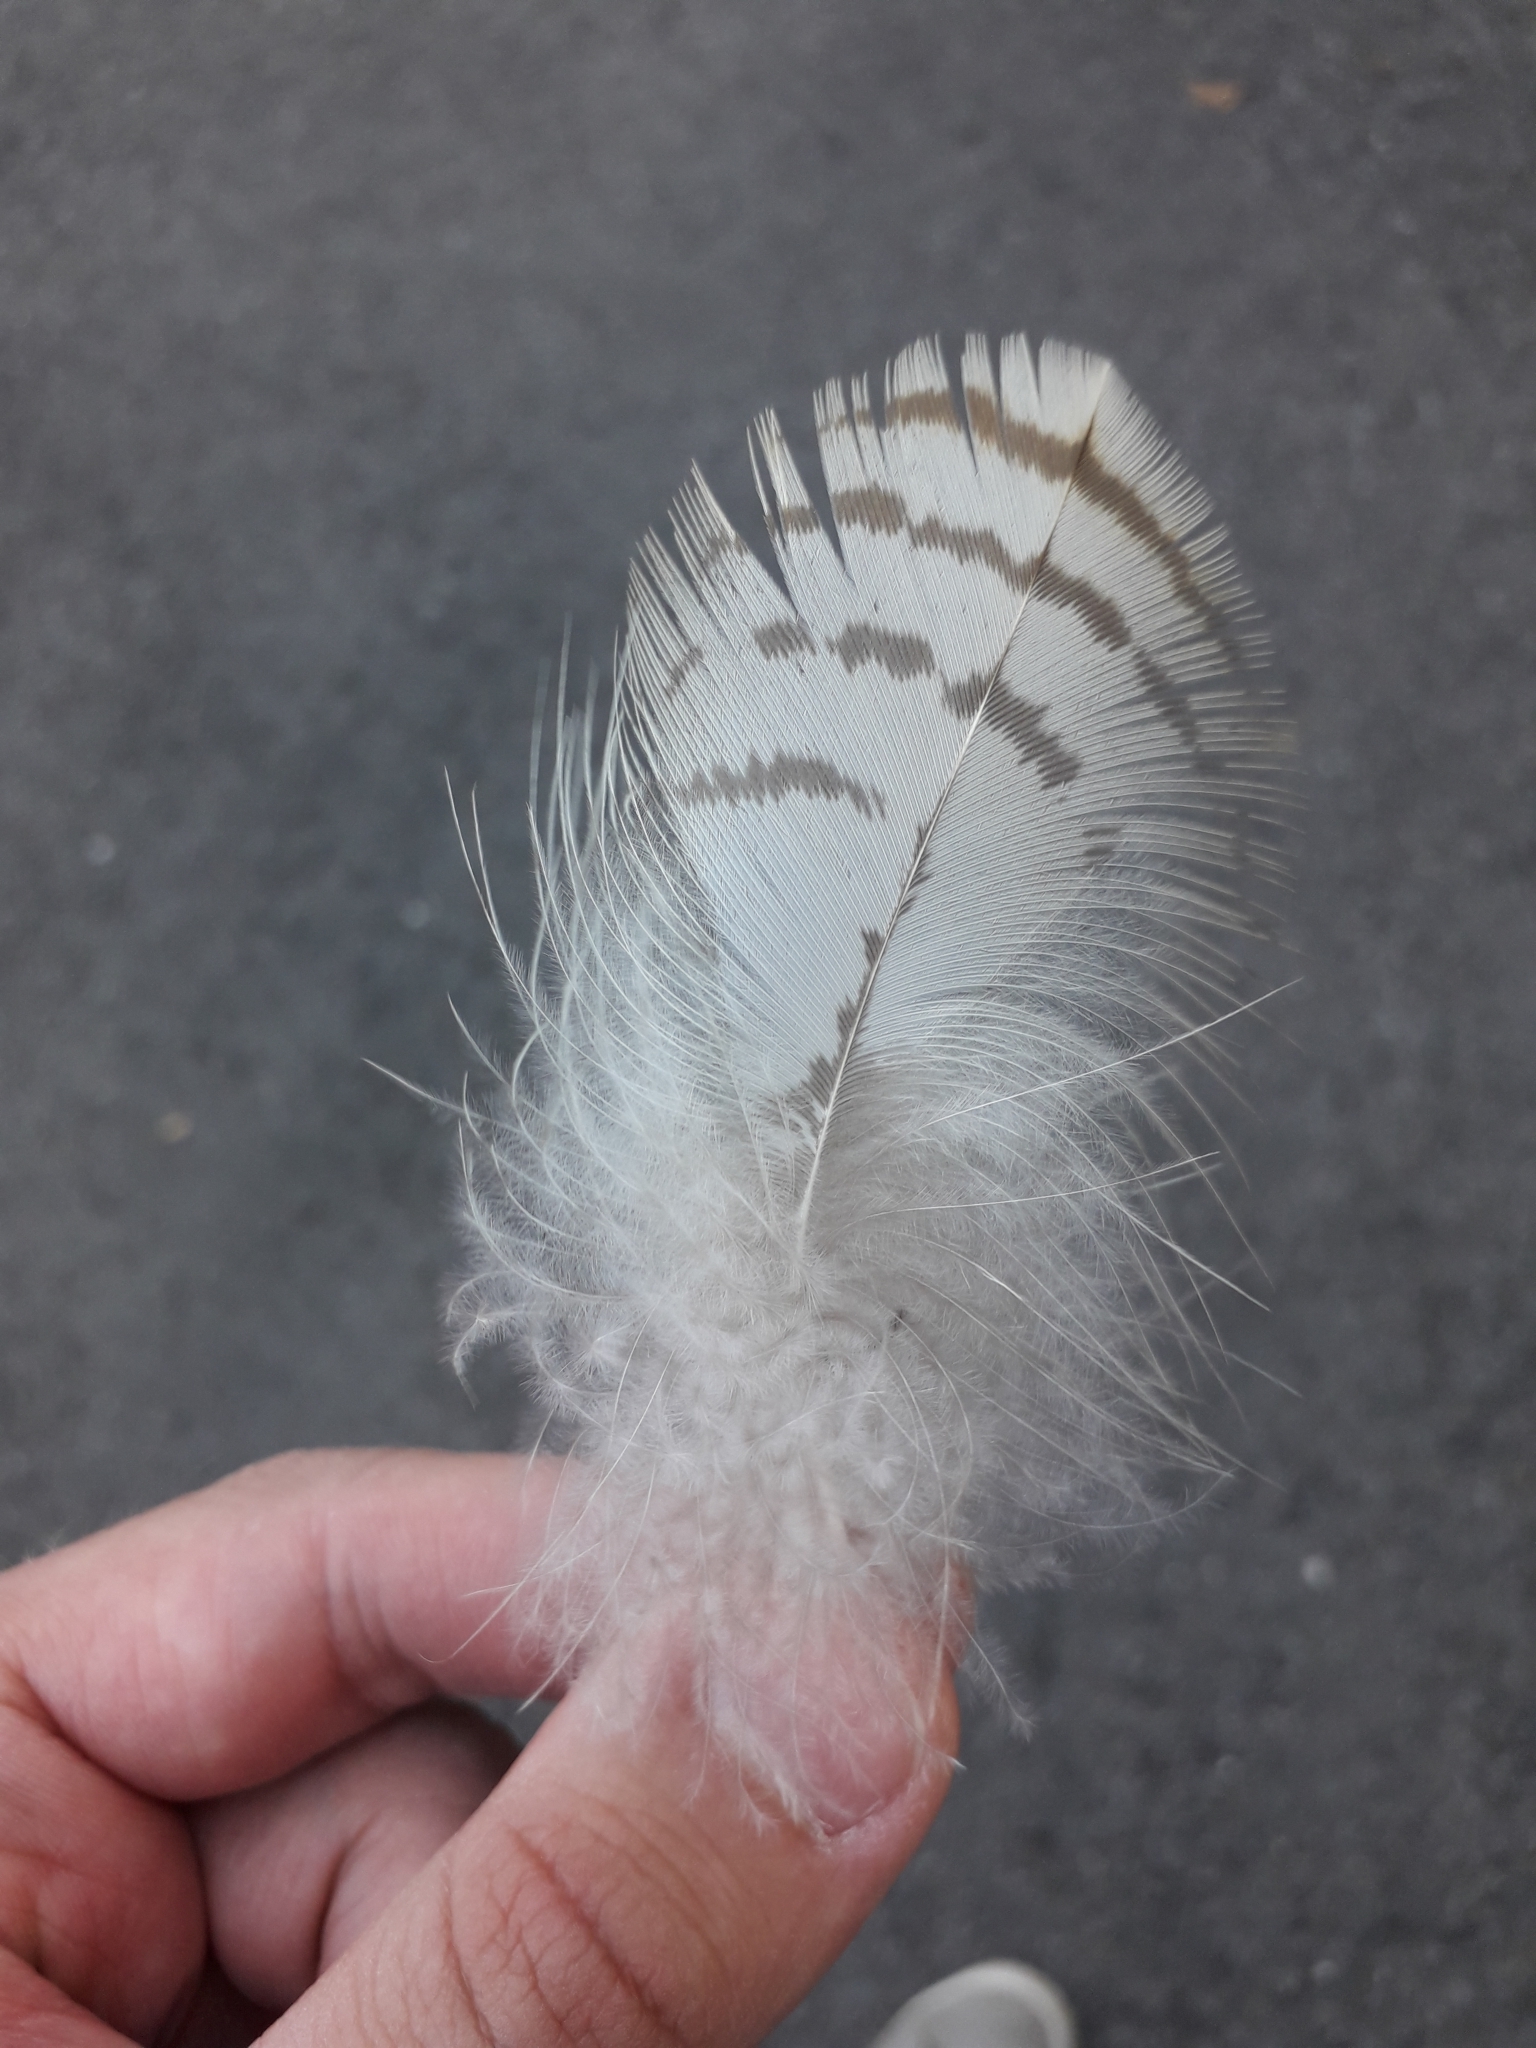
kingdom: Animalia
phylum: Chordata
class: Aves
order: Accipitriformes
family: Accipitridae
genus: Buteo
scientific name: Buteo buteo
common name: Common buzzard
